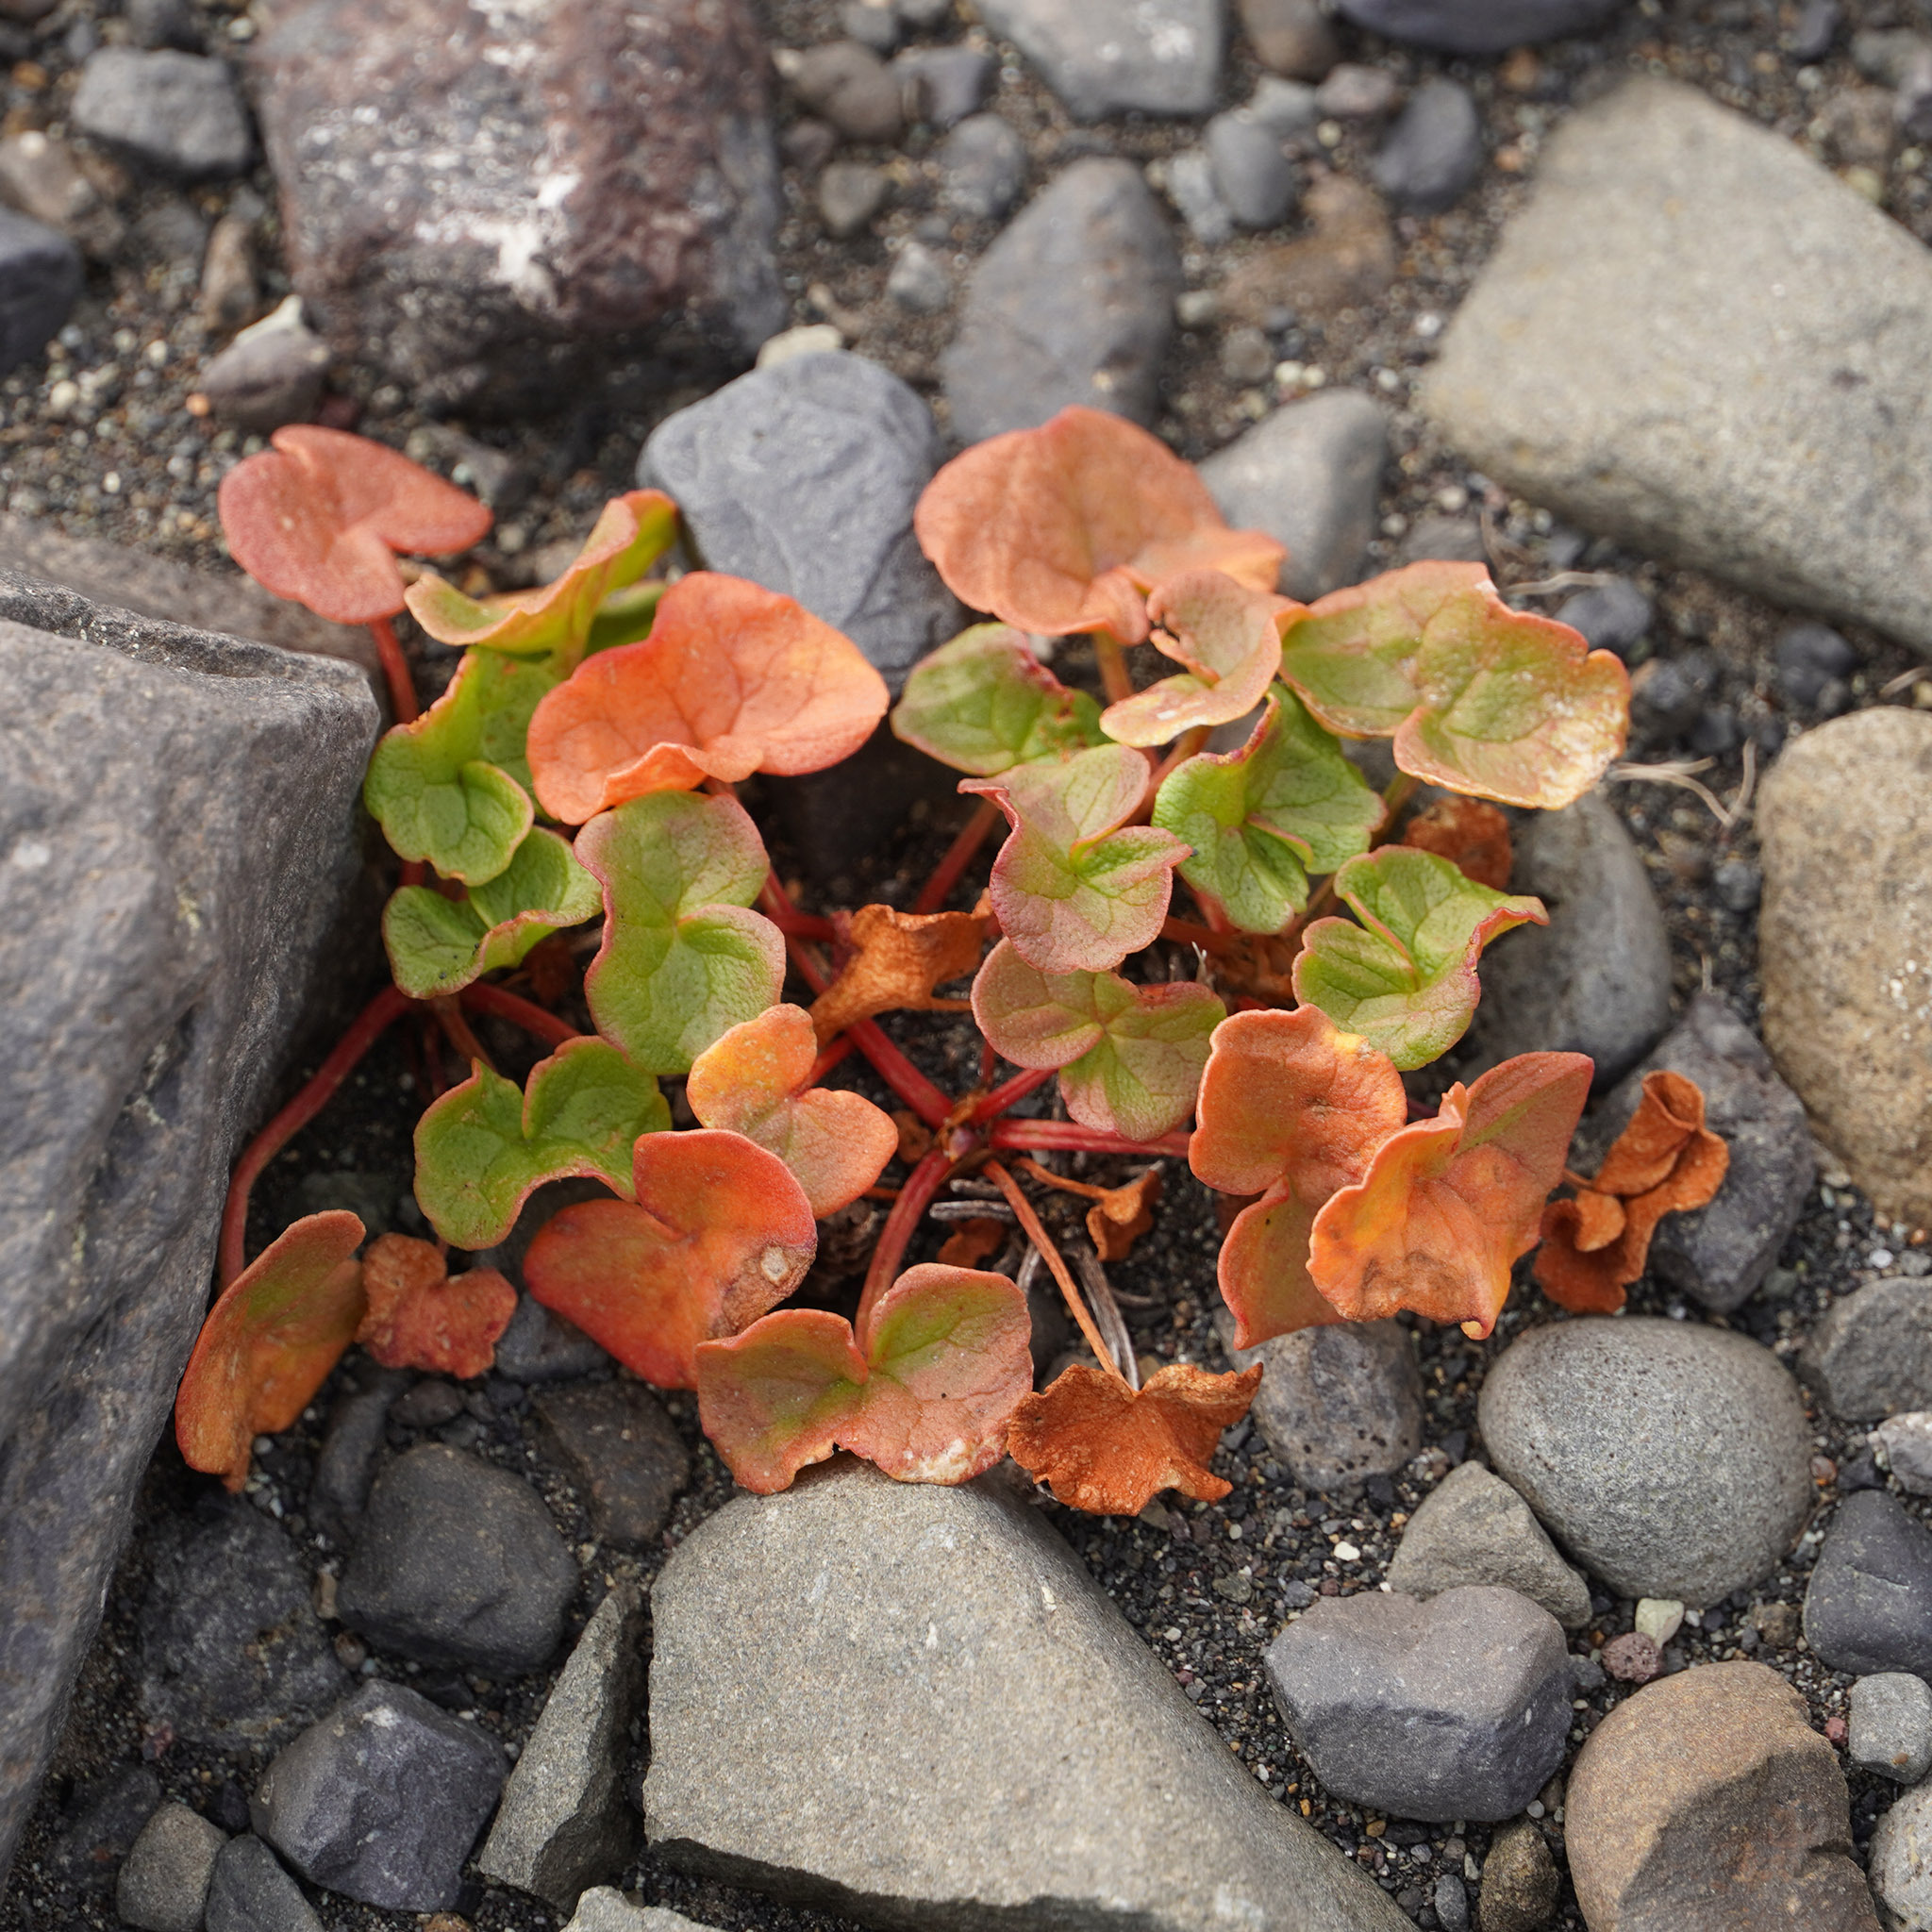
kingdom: Plantae
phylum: Tracheophyta
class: Magnoliopsida
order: Caryophyllales
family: Polygonaceae
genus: Oxyria
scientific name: Oxyria digyna
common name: Alpine mountain-sorrel
